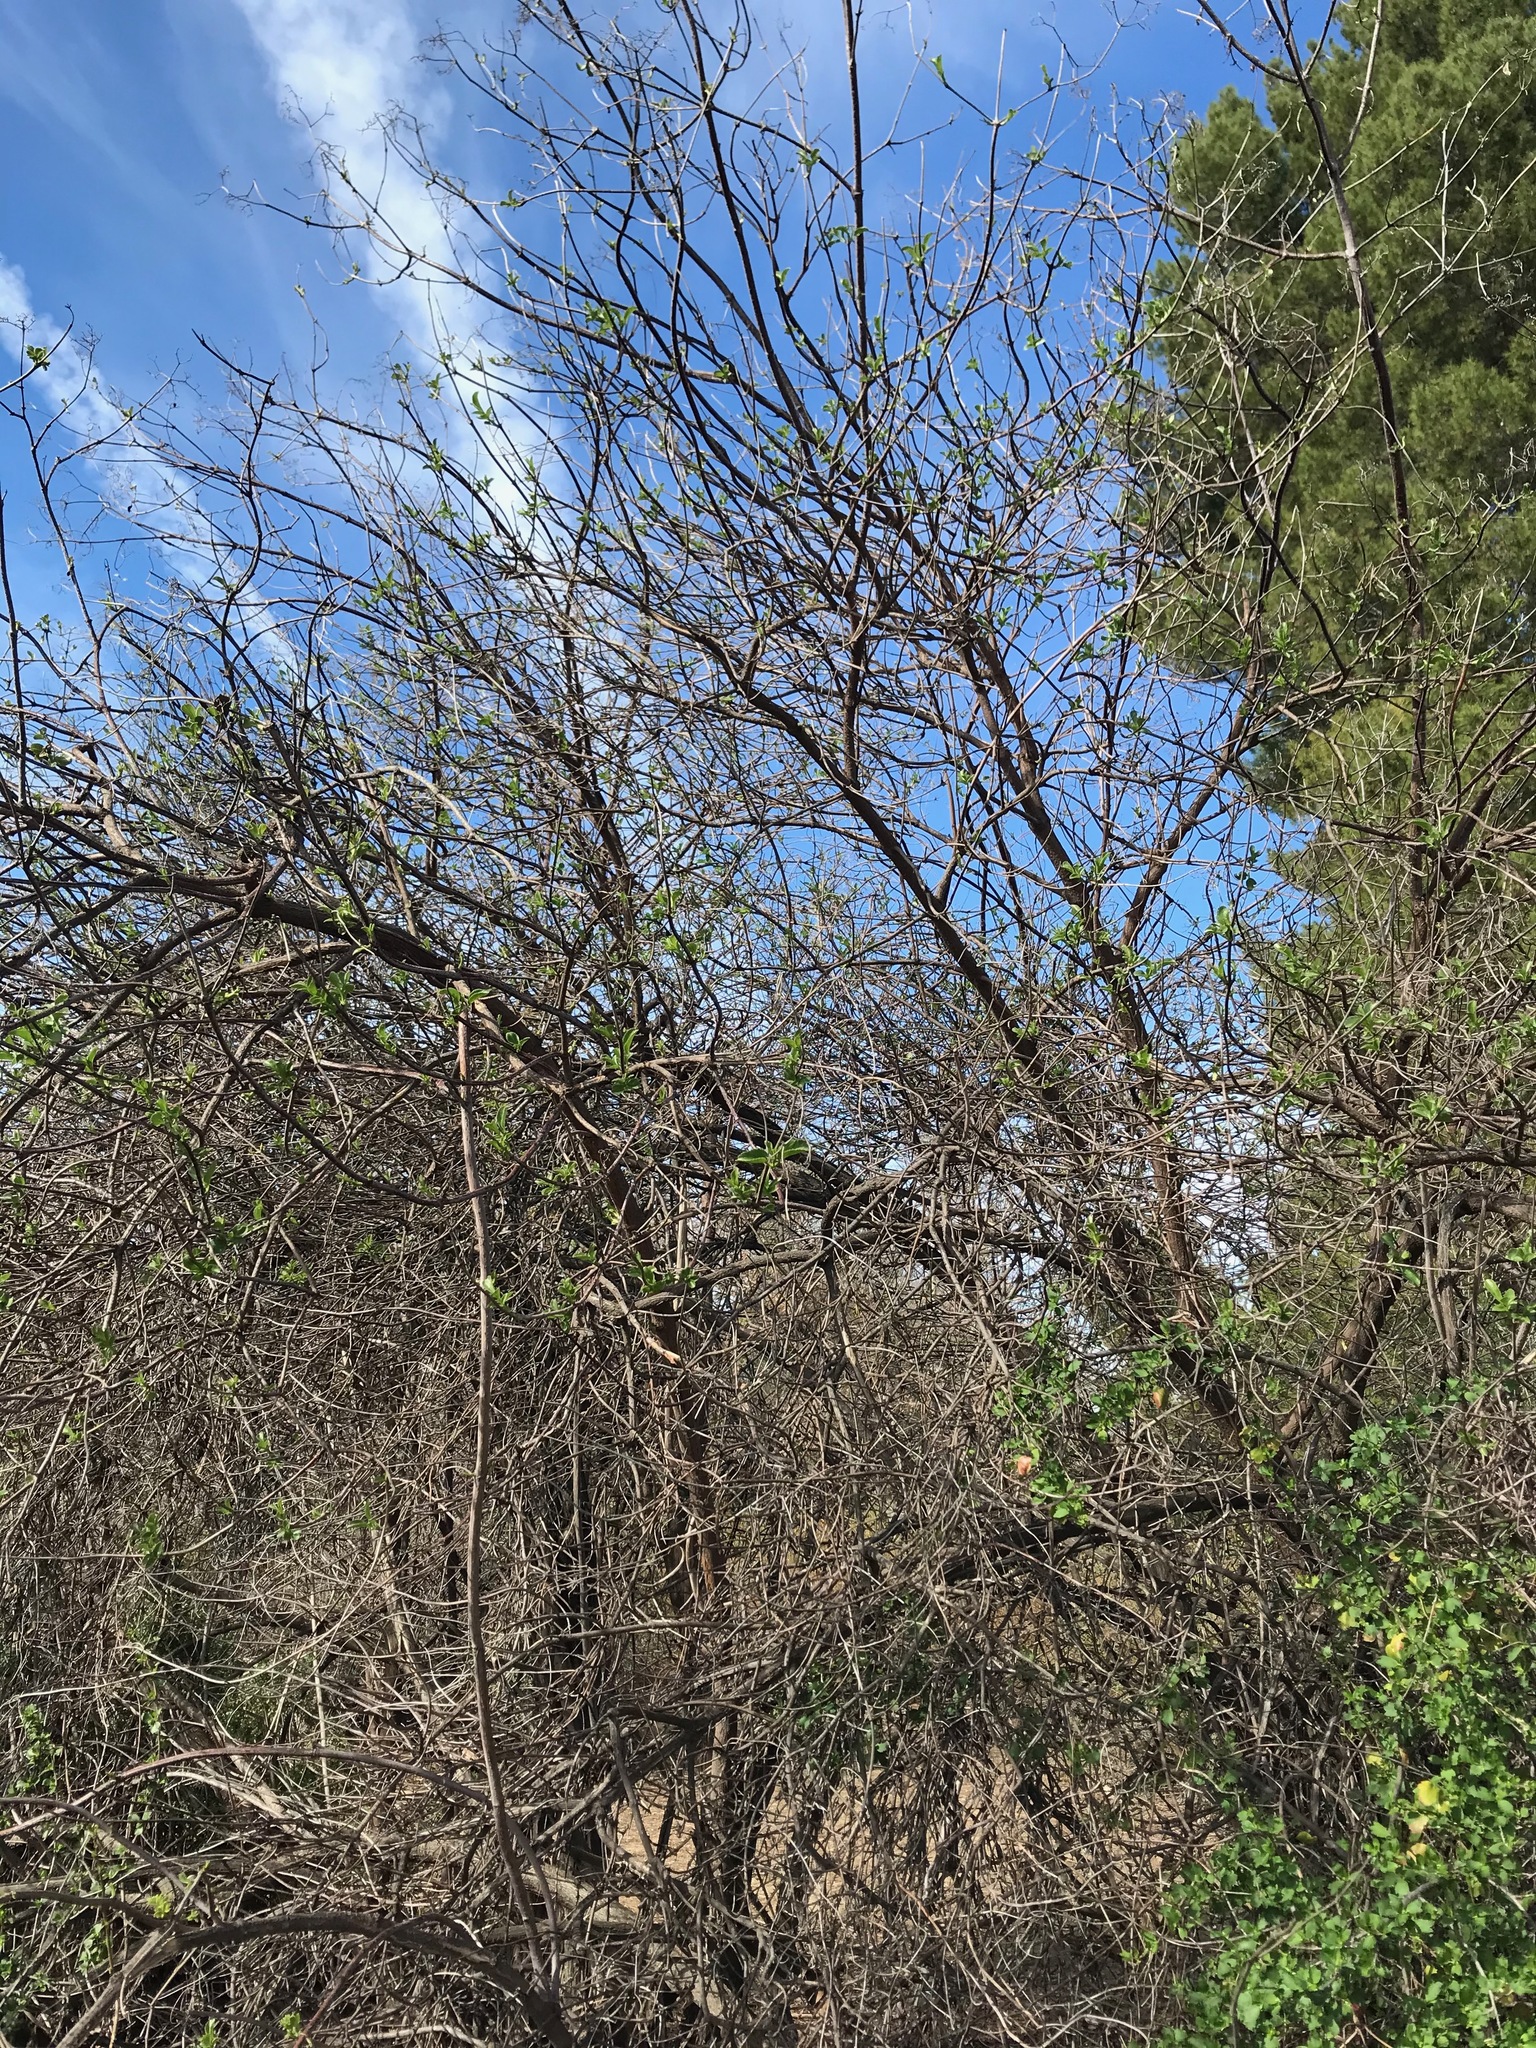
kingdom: Animalia
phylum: Chordata
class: Aves
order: Passeriformes
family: Fringillidae
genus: Haemorhous
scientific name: Haemorhous mexicanus
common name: House finch
